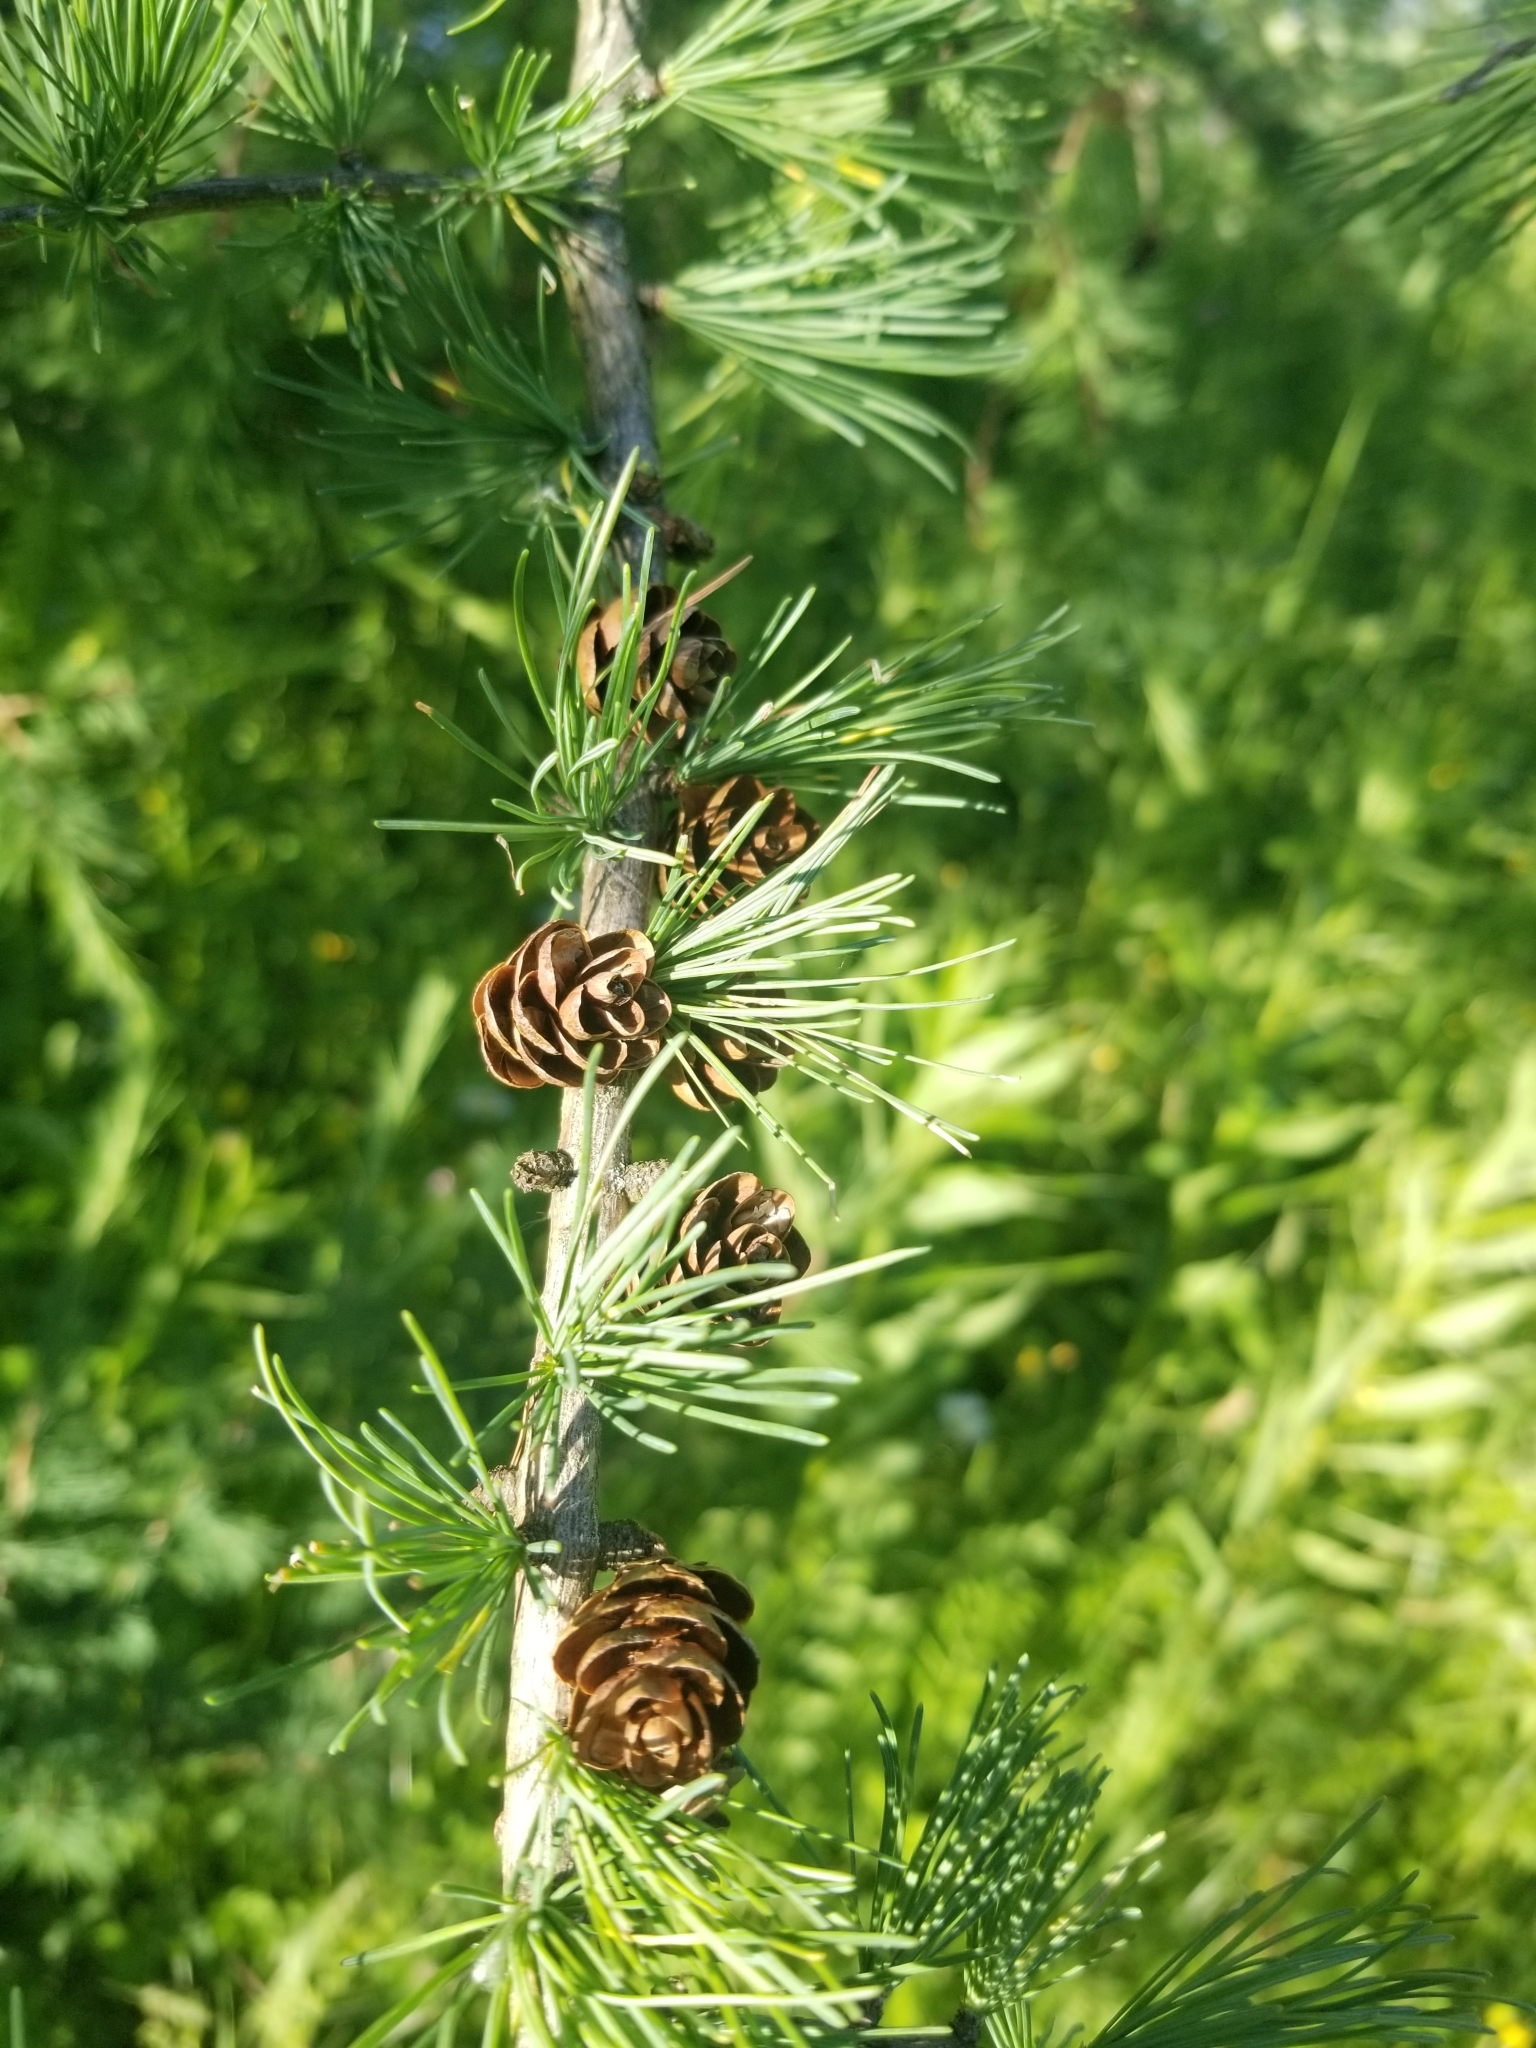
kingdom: Plantae
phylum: Tracheophyta
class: Pinopsida
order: Pinales
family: Pinaceae
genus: Larix
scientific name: Larix laricina
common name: American larch
